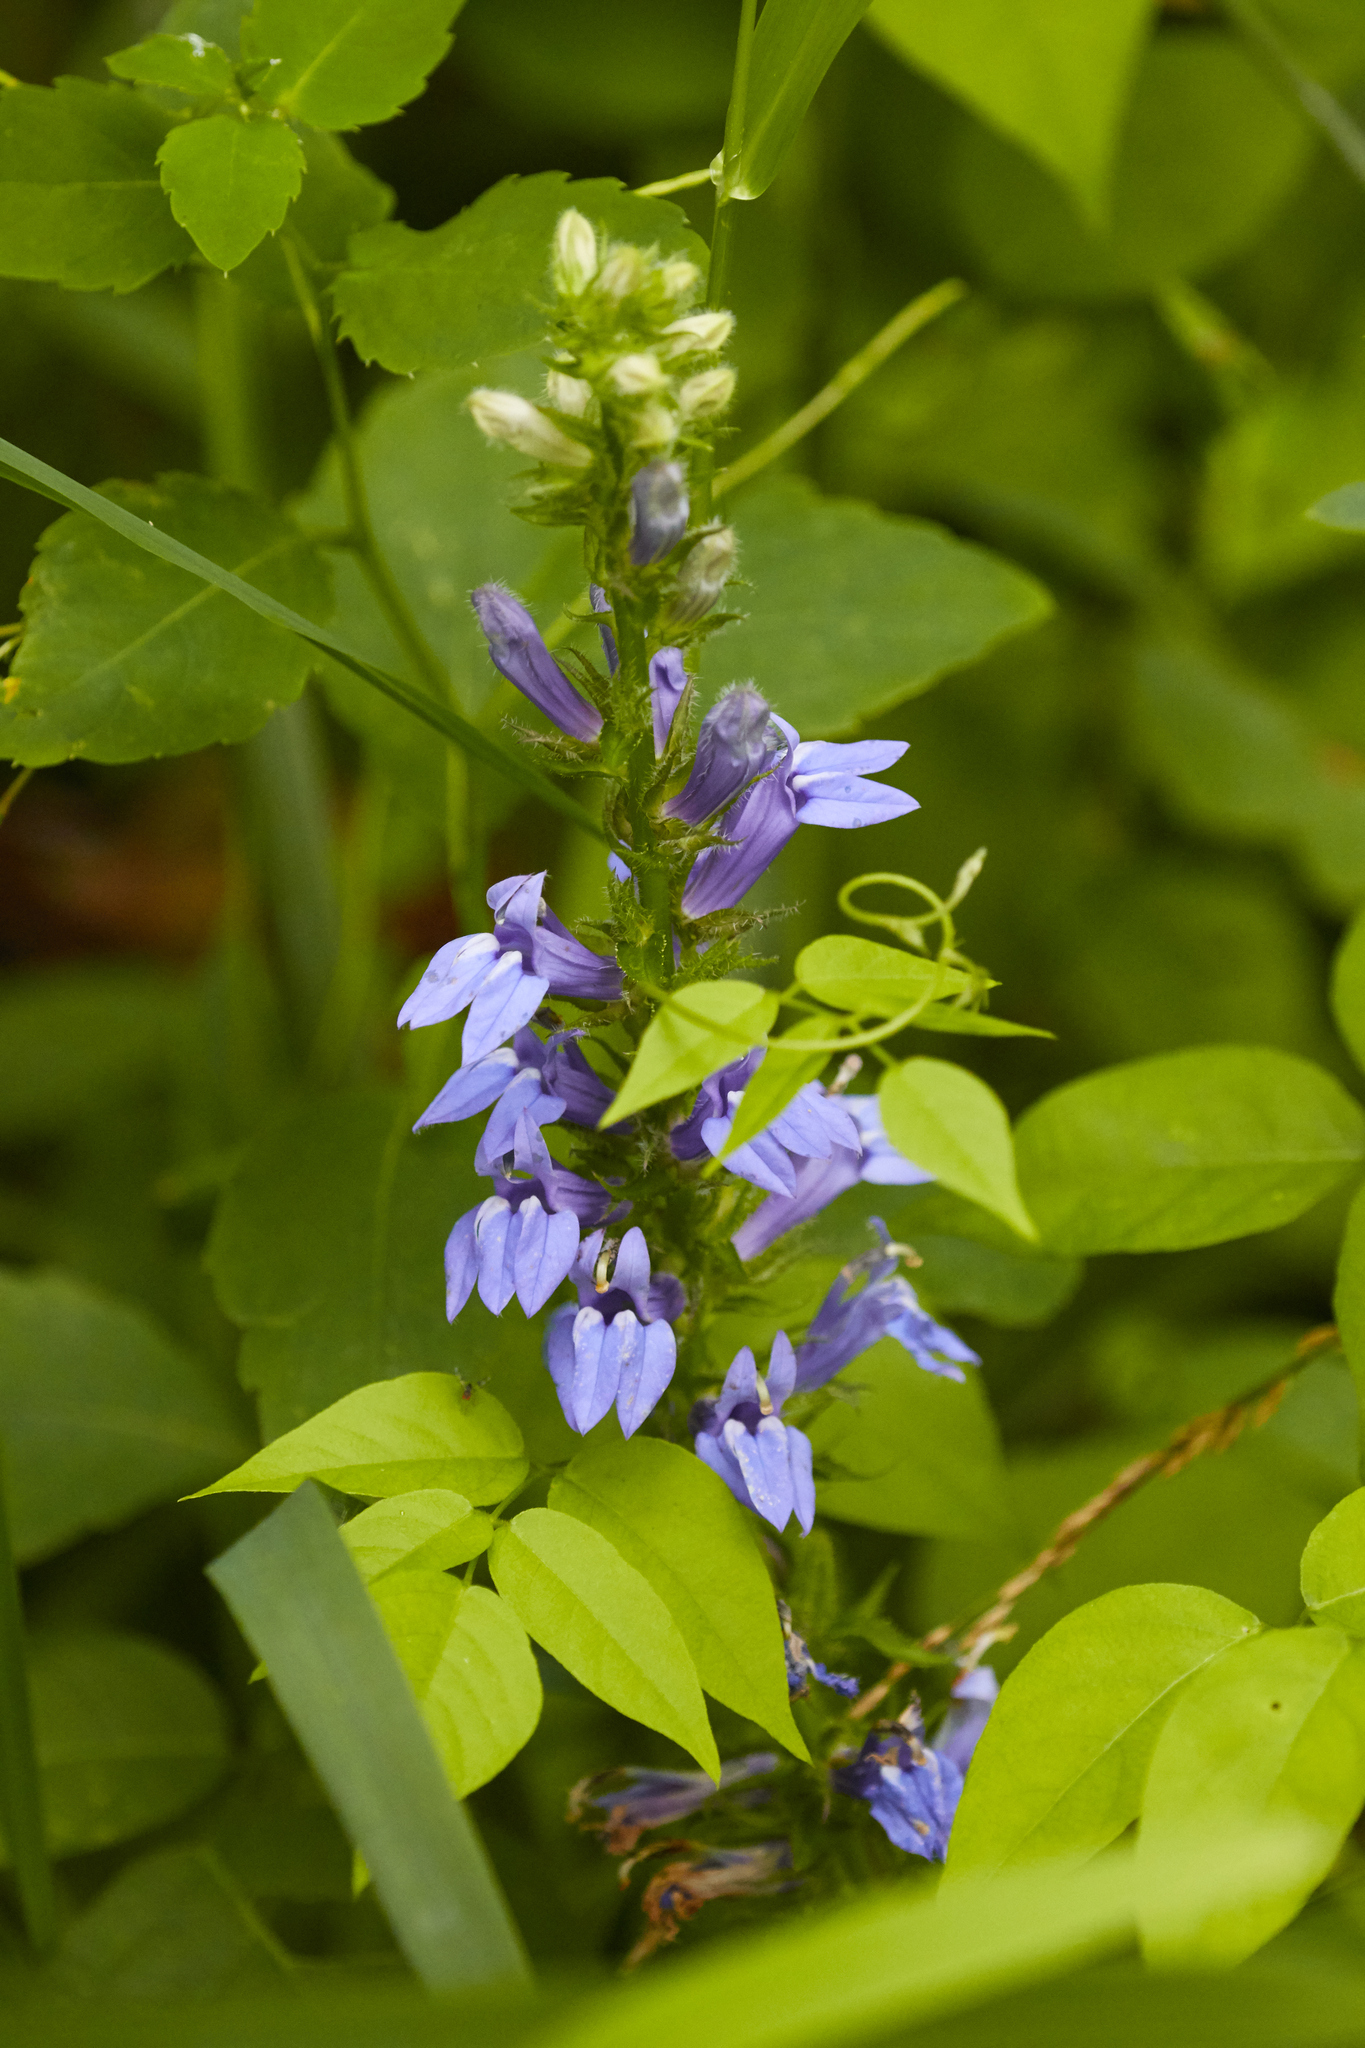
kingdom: Plantae
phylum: Tracheophyta
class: Magnoliopsida
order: Asterales
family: Campanulaceae
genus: Lobelia
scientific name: Lobelia siphilitica
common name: Great lobelia
